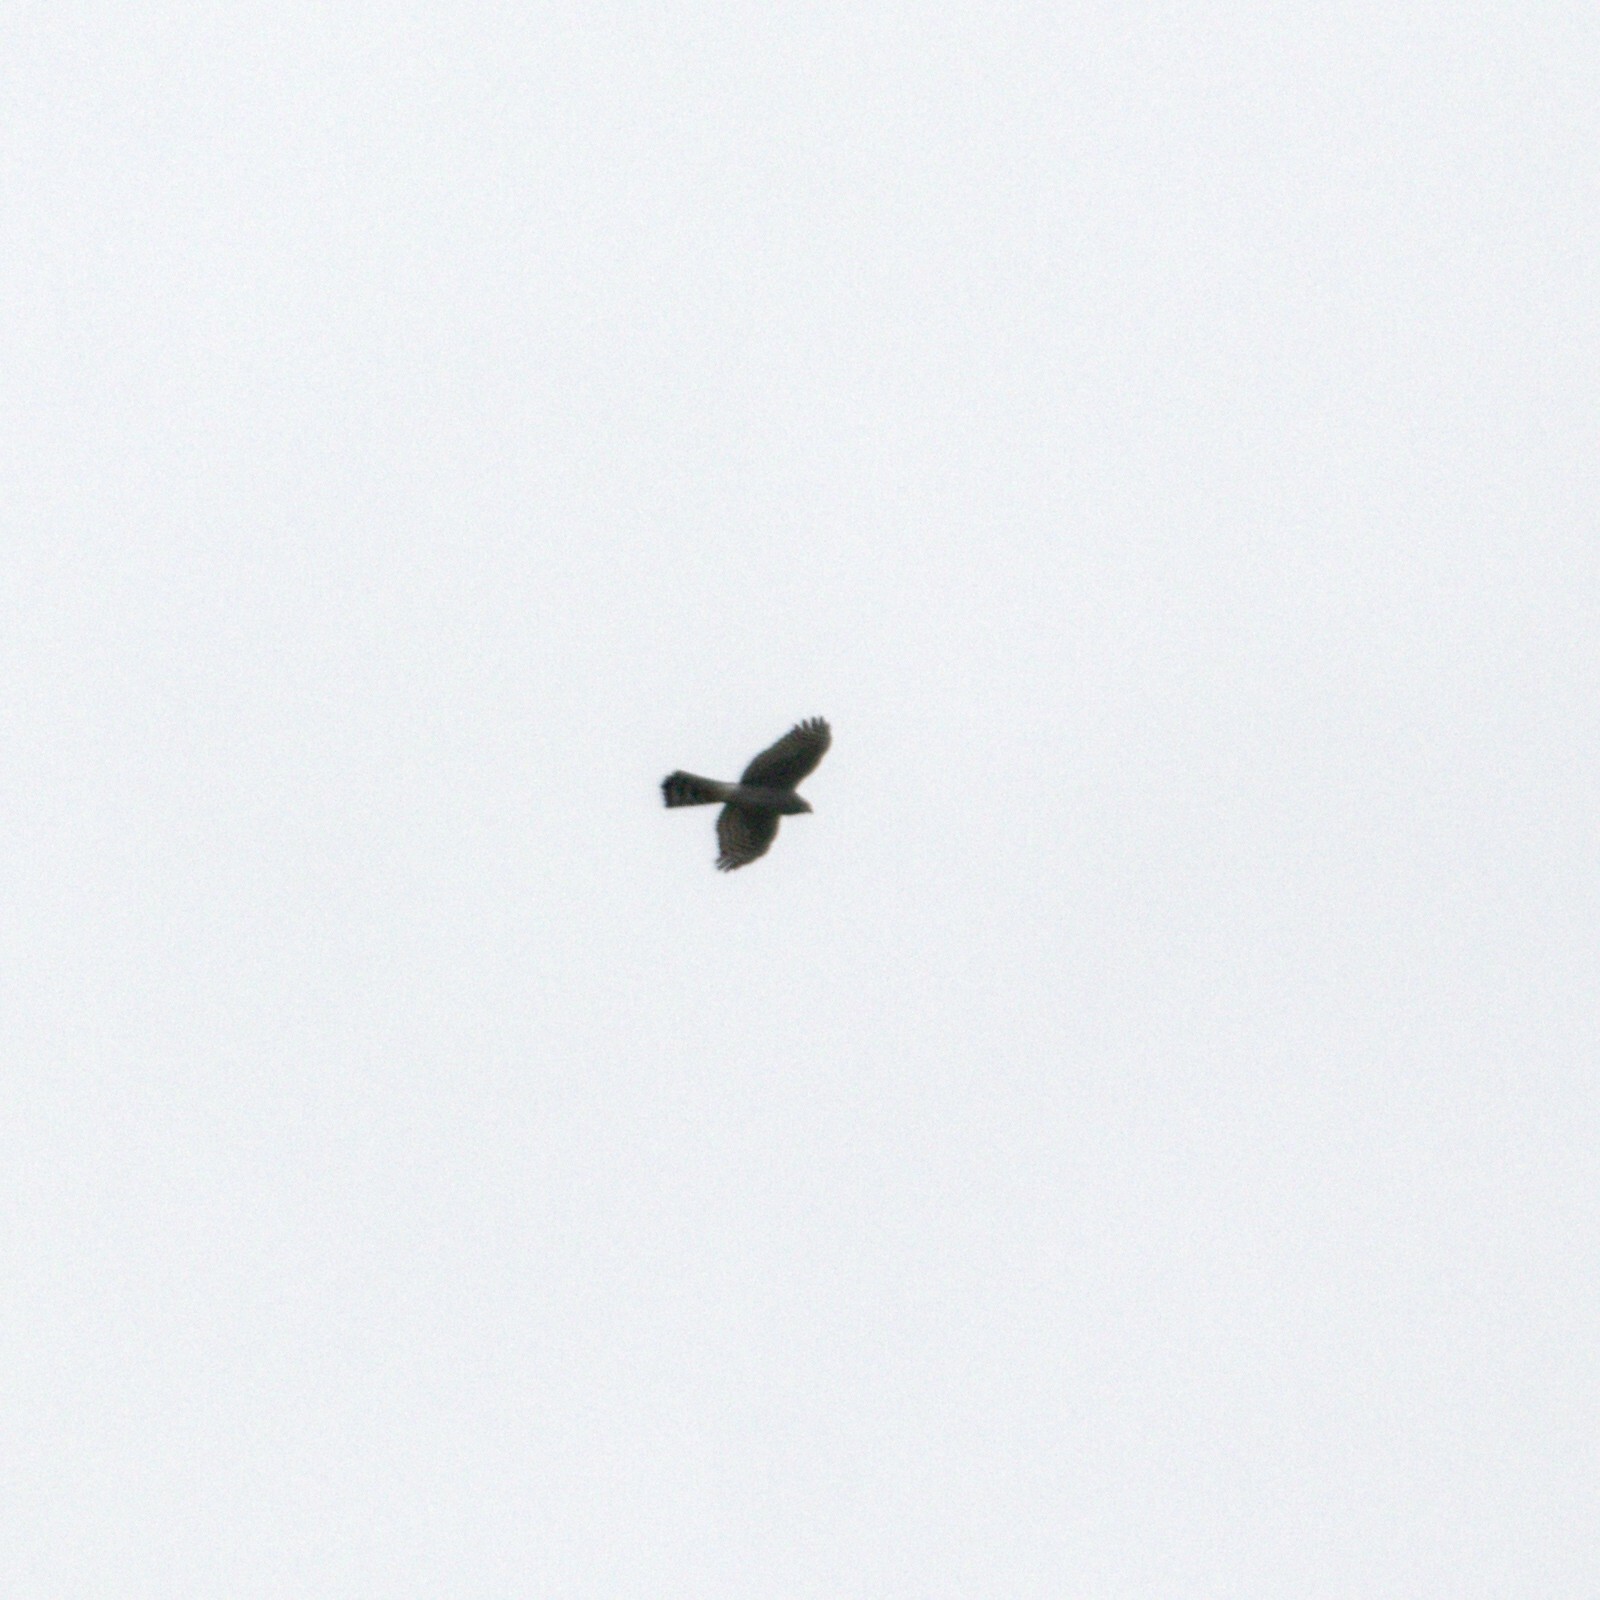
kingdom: Animalia
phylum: Chordata
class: Aves
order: Accipitriformes
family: Accipitridae
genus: Accipiter
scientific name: Accipiter nisus
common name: Eurasian sparrowhawk
